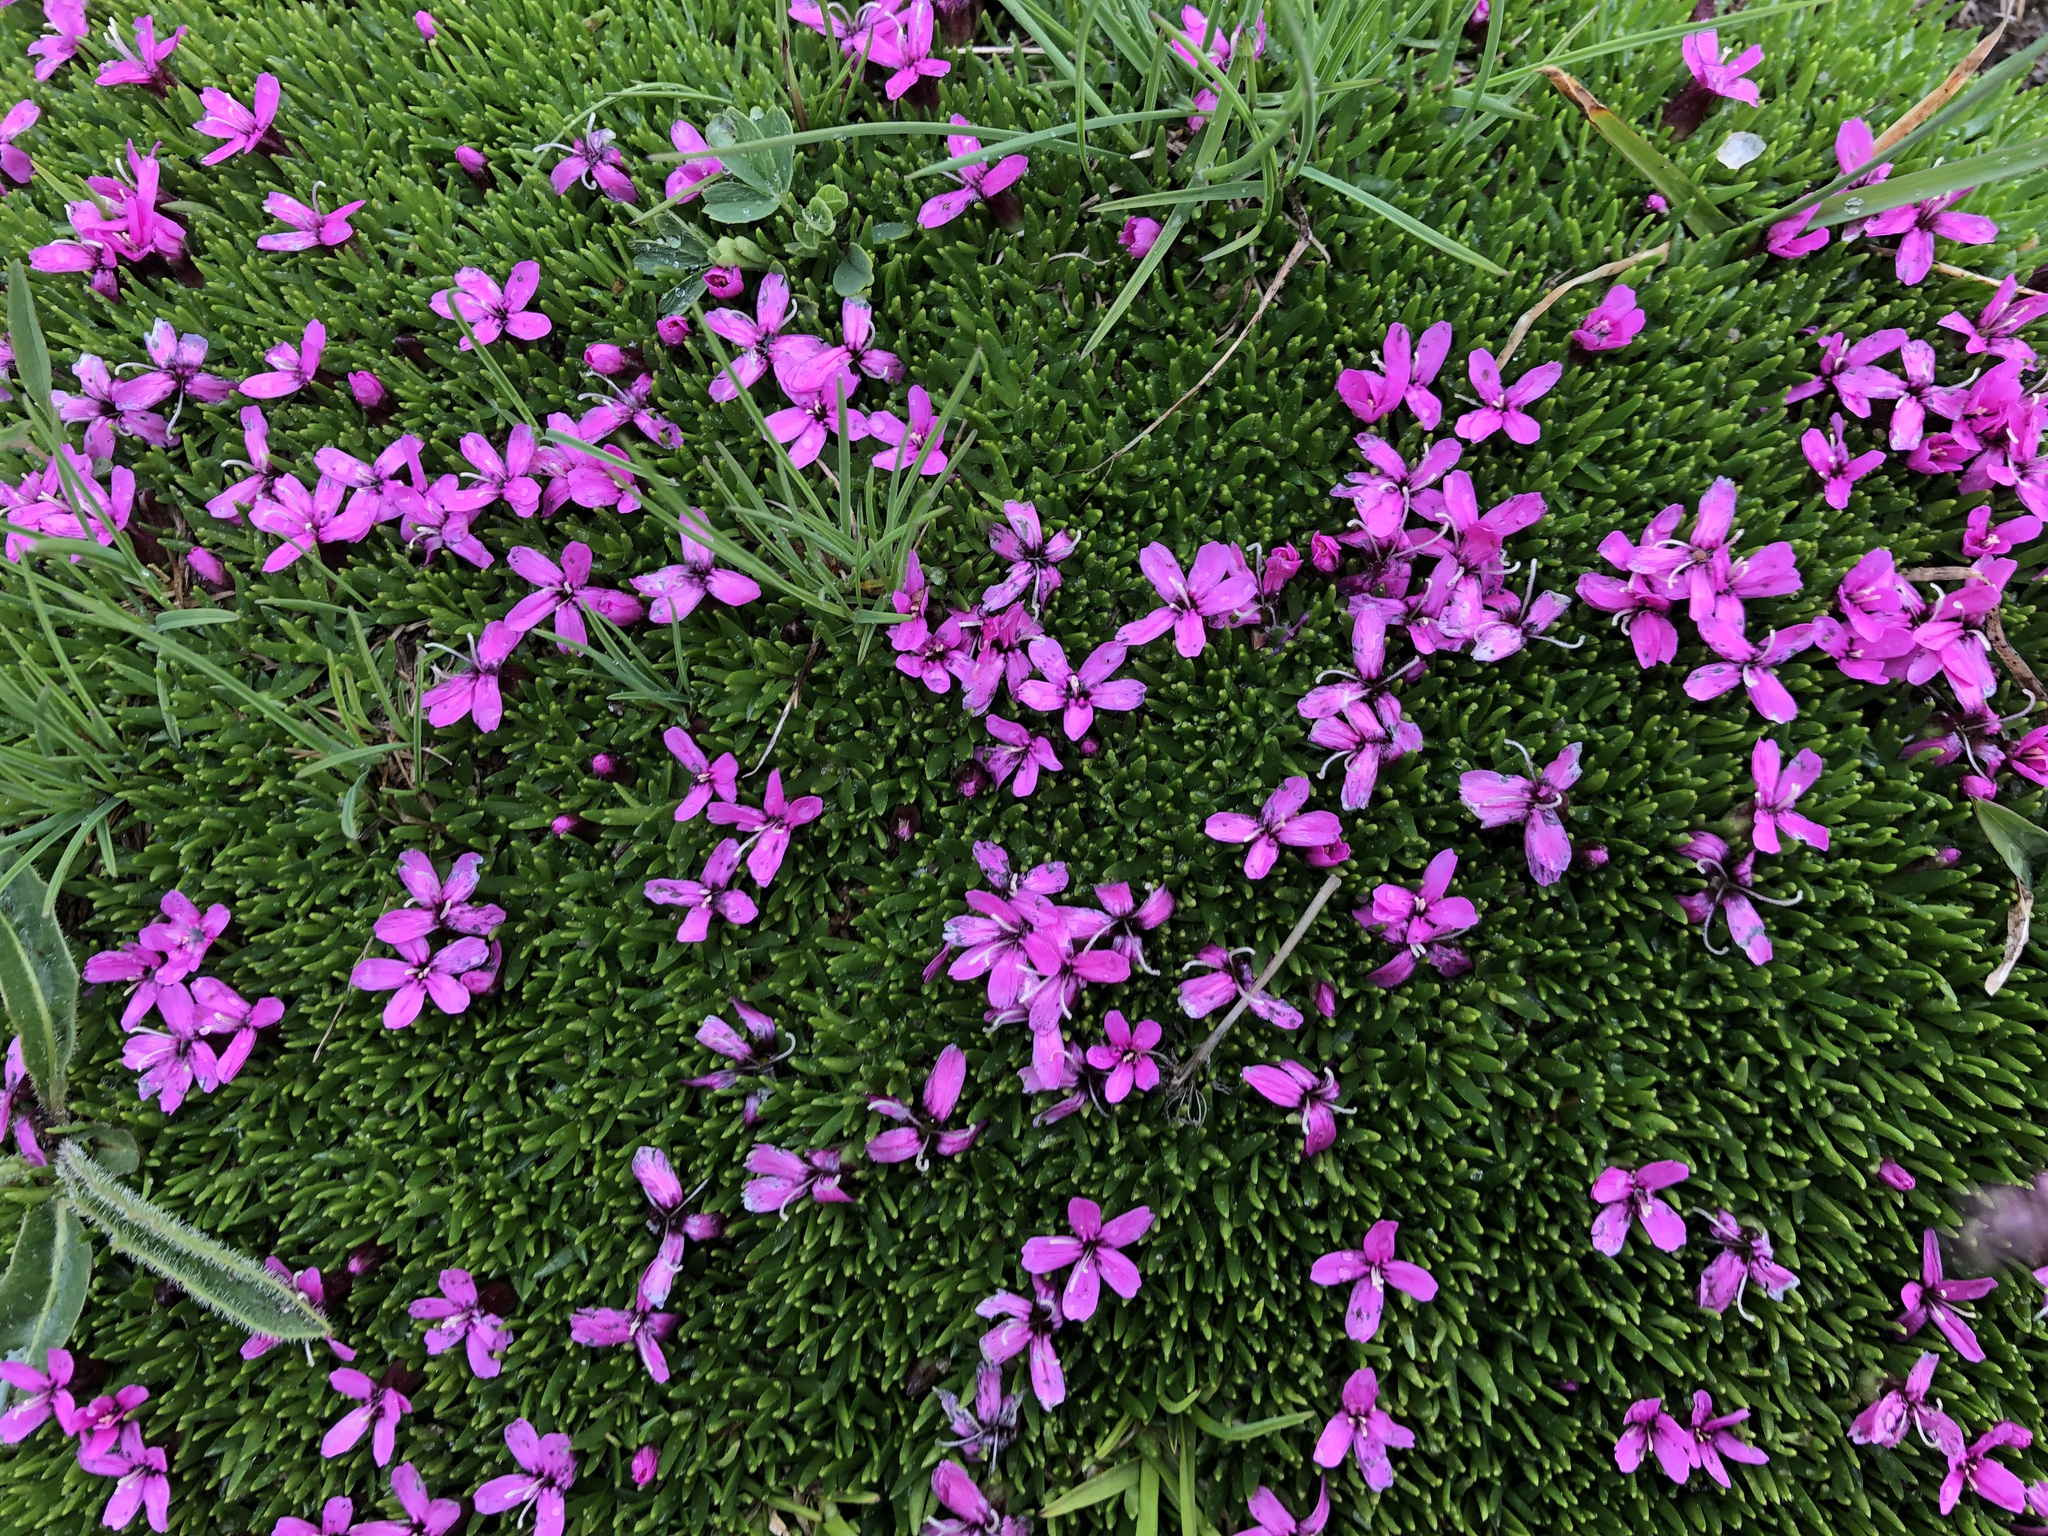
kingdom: Plantae
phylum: Tracheophyta
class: Magnoliopsida
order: Caryophyllales
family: Caryophyllaceae
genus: Silene
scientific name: Silene acaulis
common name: Moss campion
